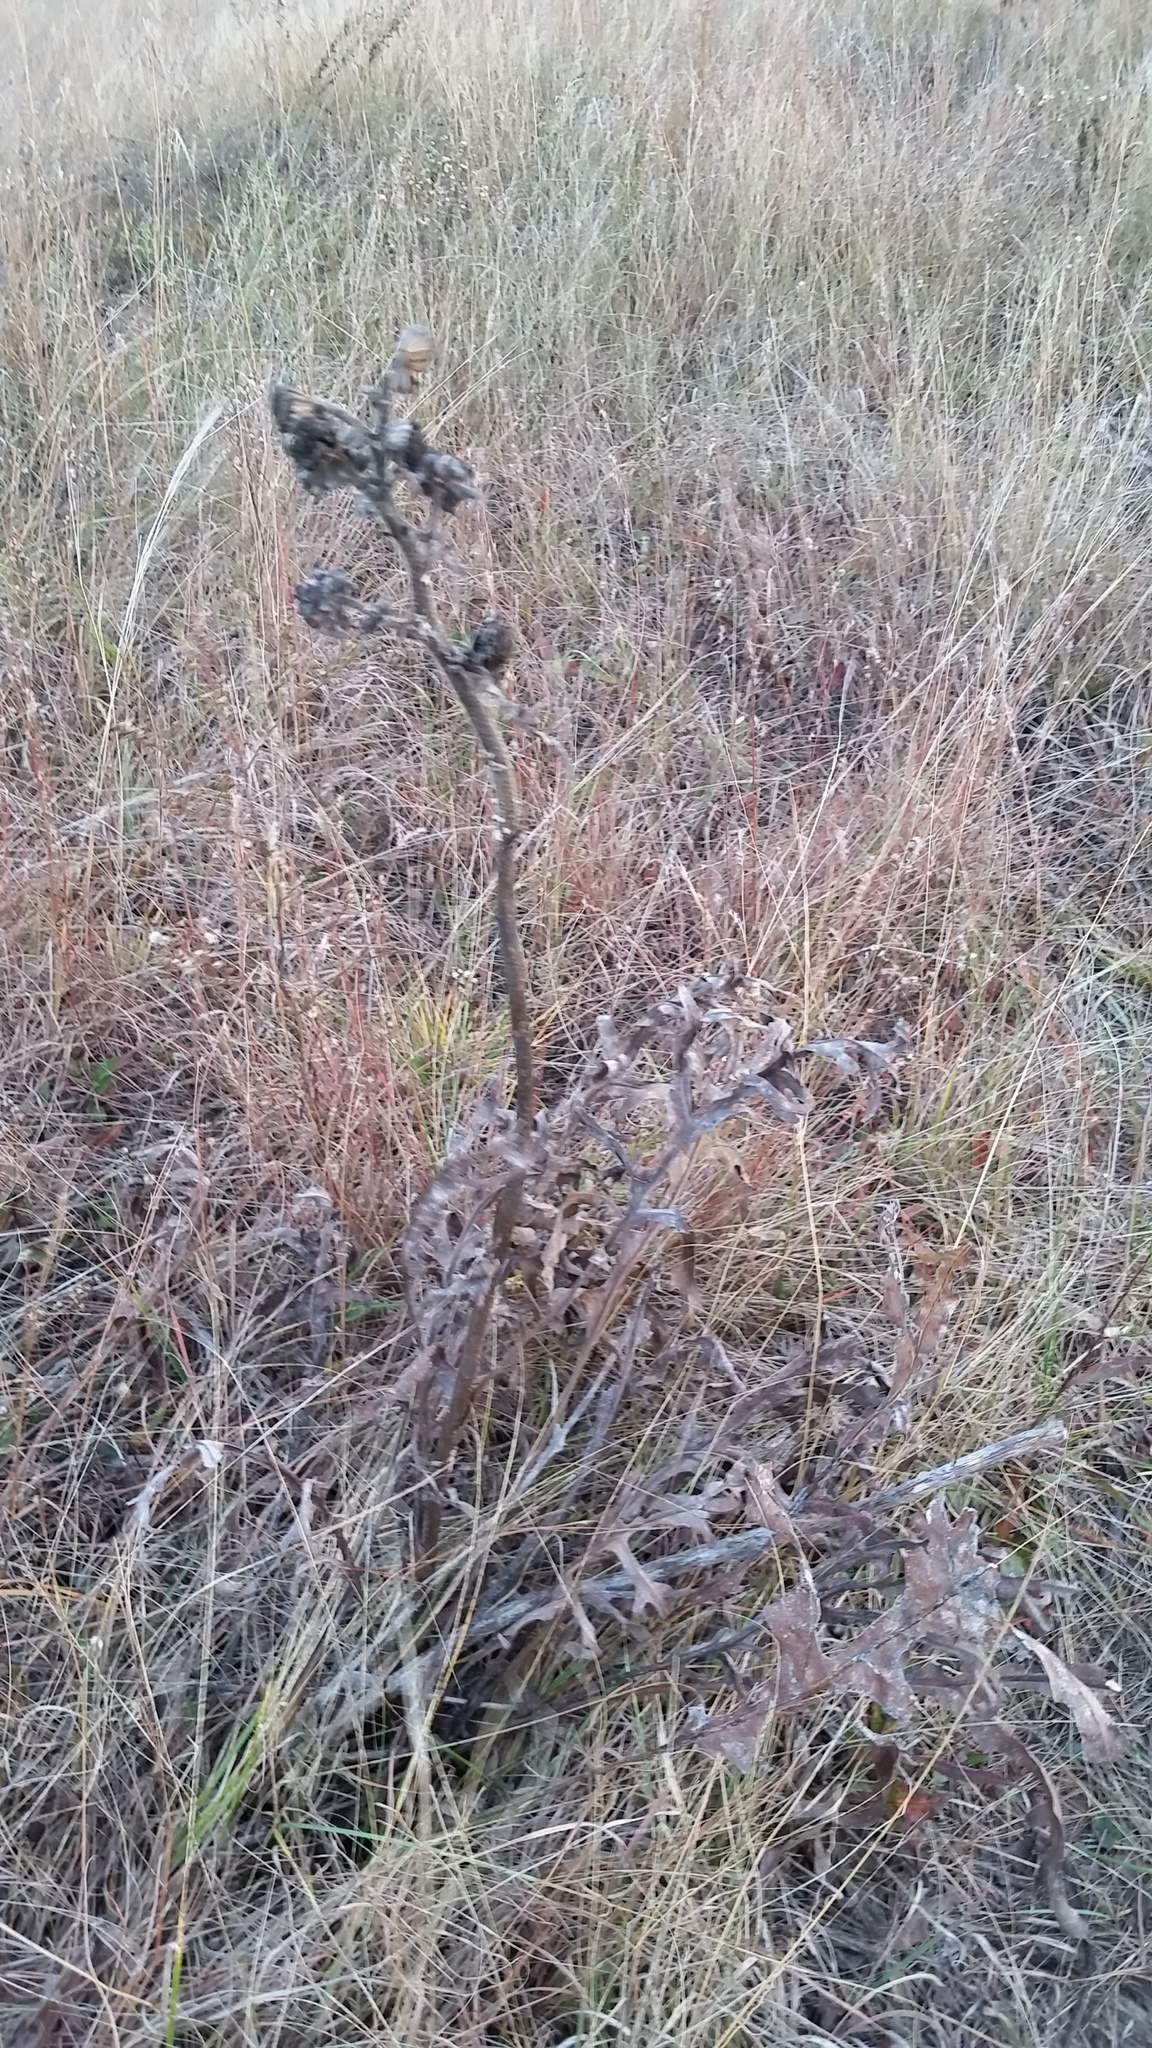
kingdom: Plantae
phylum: Tracheophyta
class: Magnoliopsida
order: Asterales
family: Asteraceae
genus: Silphium
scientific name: Silphium laciniatum
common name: Polarplant
